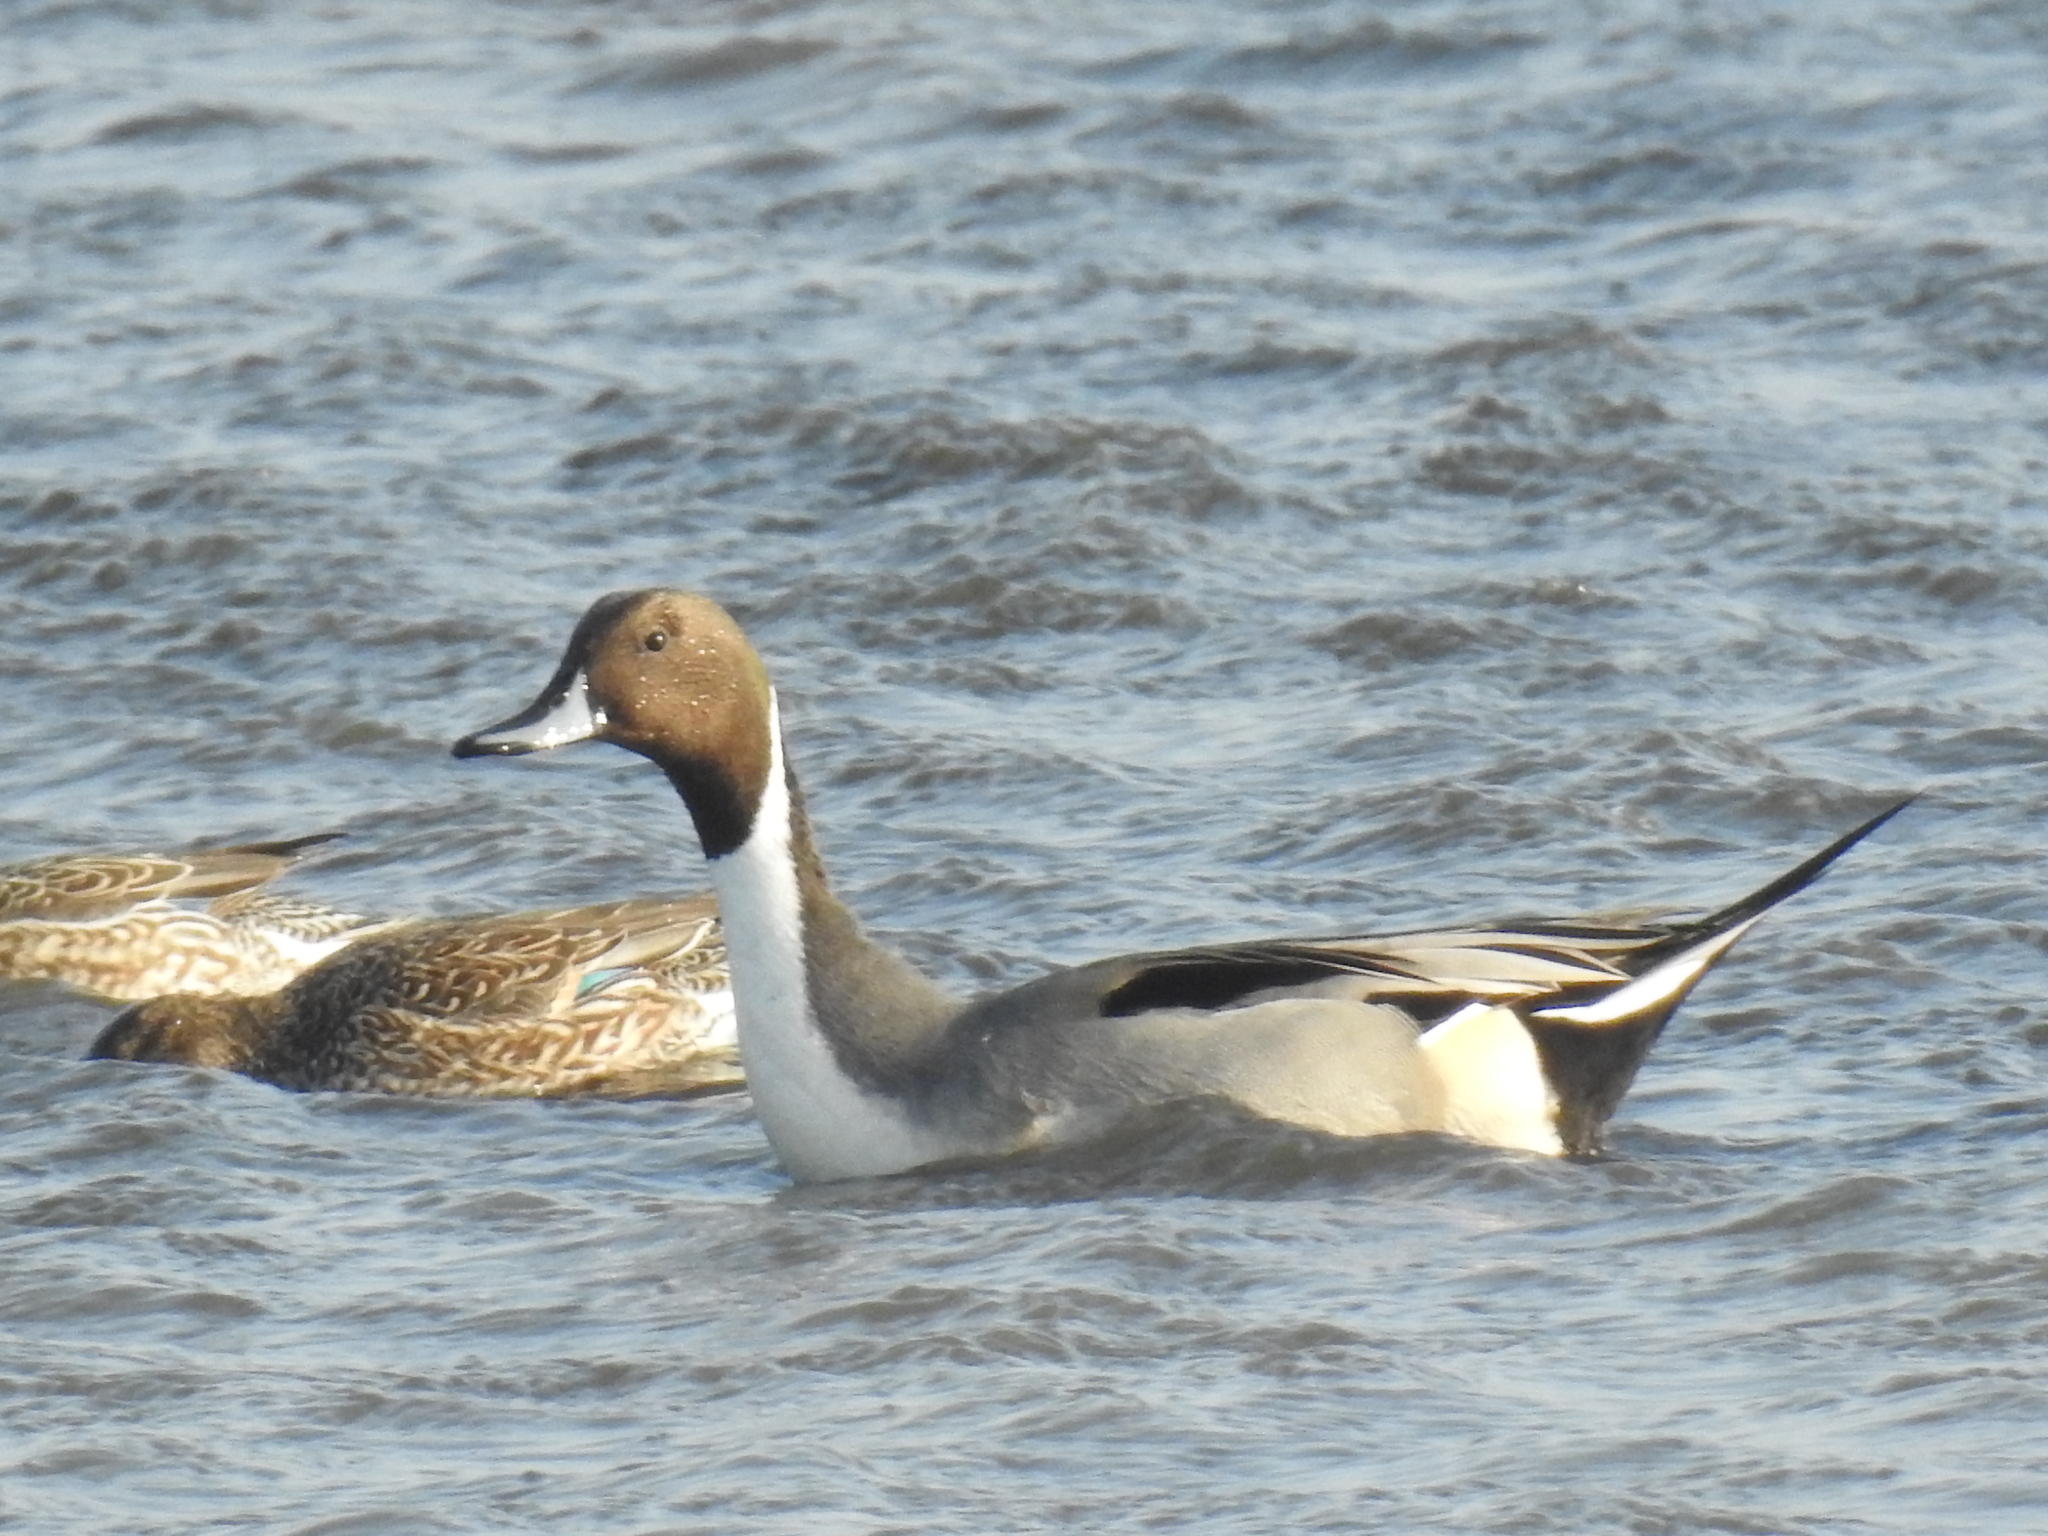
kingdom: Animalia
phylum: Chordata
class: Aves
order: Anseriformes
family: Anatidae
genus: Anas
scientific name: Anas acuta
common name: Northern pintail
